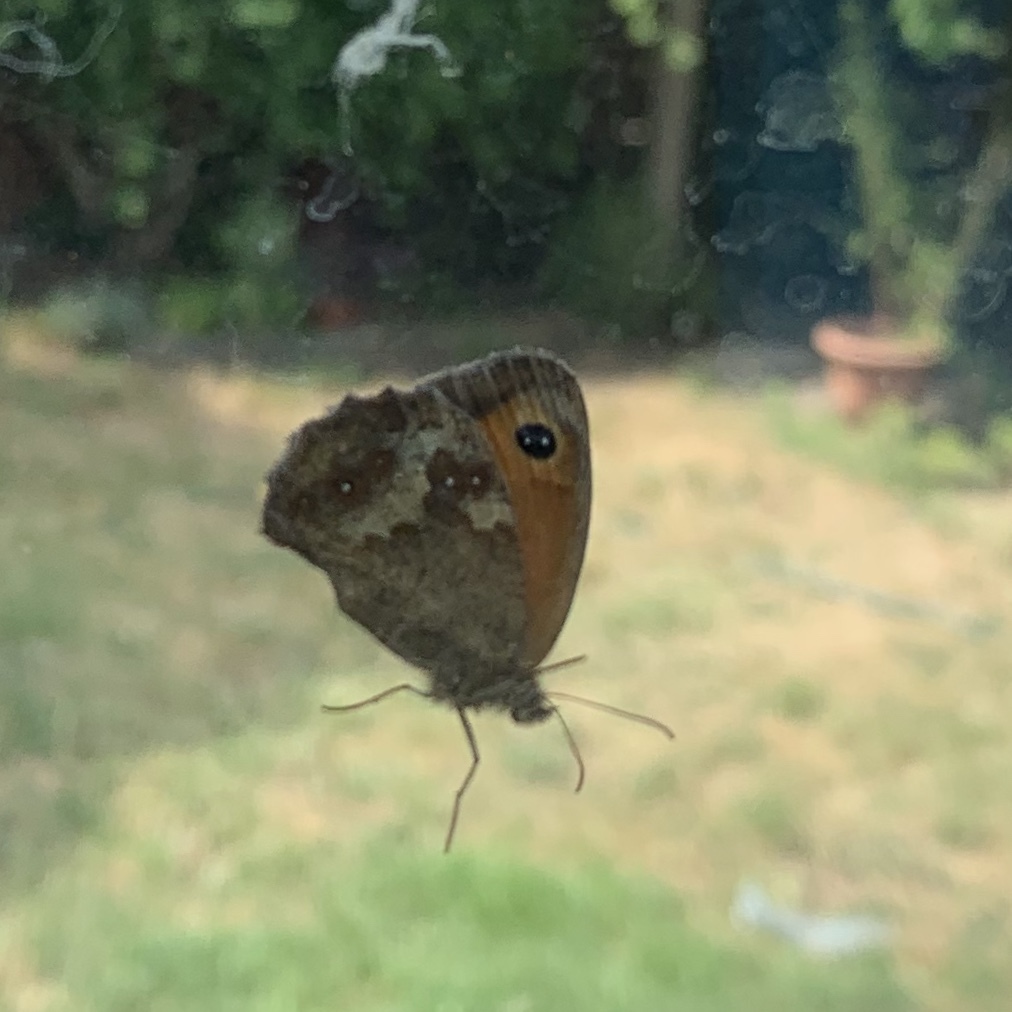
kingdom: Animalia
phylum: Arthropoda
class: Insecta
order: Lepidoptera
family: Nymphalidae
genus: Pyronia
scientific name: Pyronia tithonus
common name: Gatekeeper
